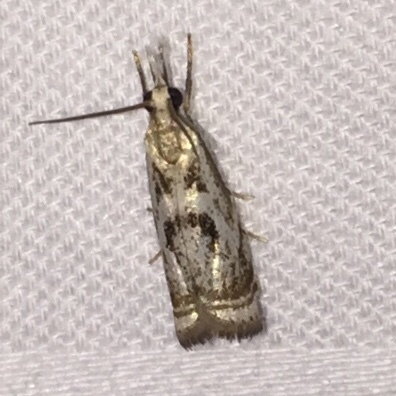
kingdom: Animalia
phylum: Arthropoda
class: Insecta
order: Lepidoptera
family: Crambidae
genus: Microcrambus
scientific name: Microcrambus elegans
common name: Elegant grass-veneer
